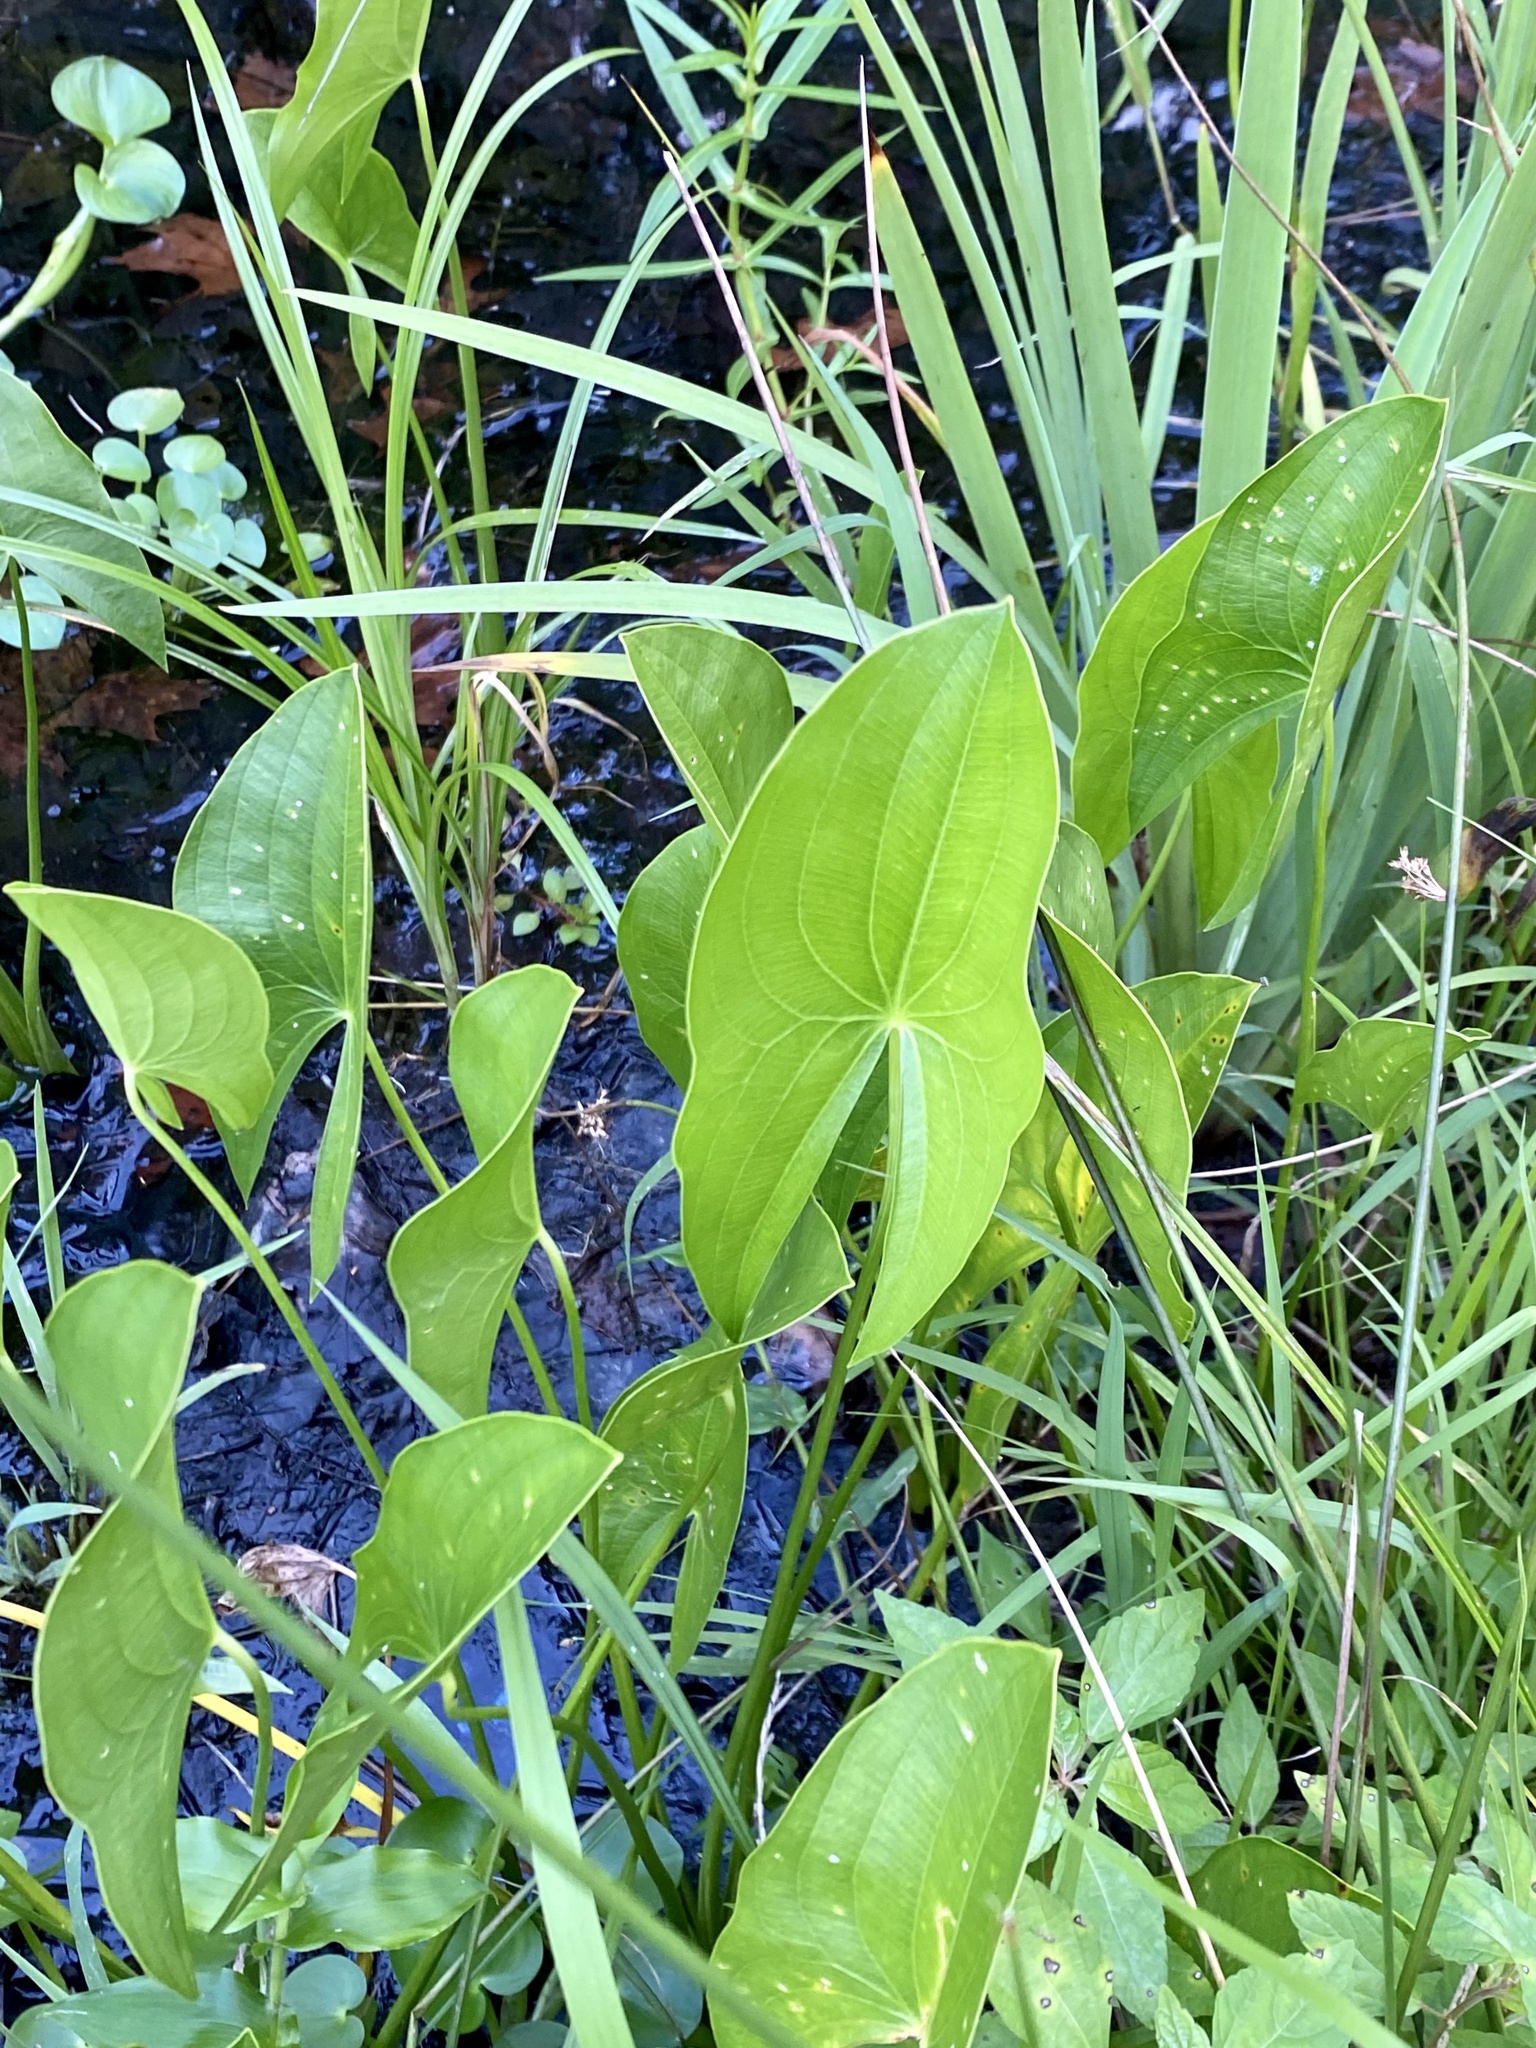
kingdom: Plantae
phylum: Tracheophyta
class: Liliopsida
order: Alismatales
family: Alismataceae
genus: Sagittaria
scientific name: Sagittaria latifolia
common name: Duck-potato
